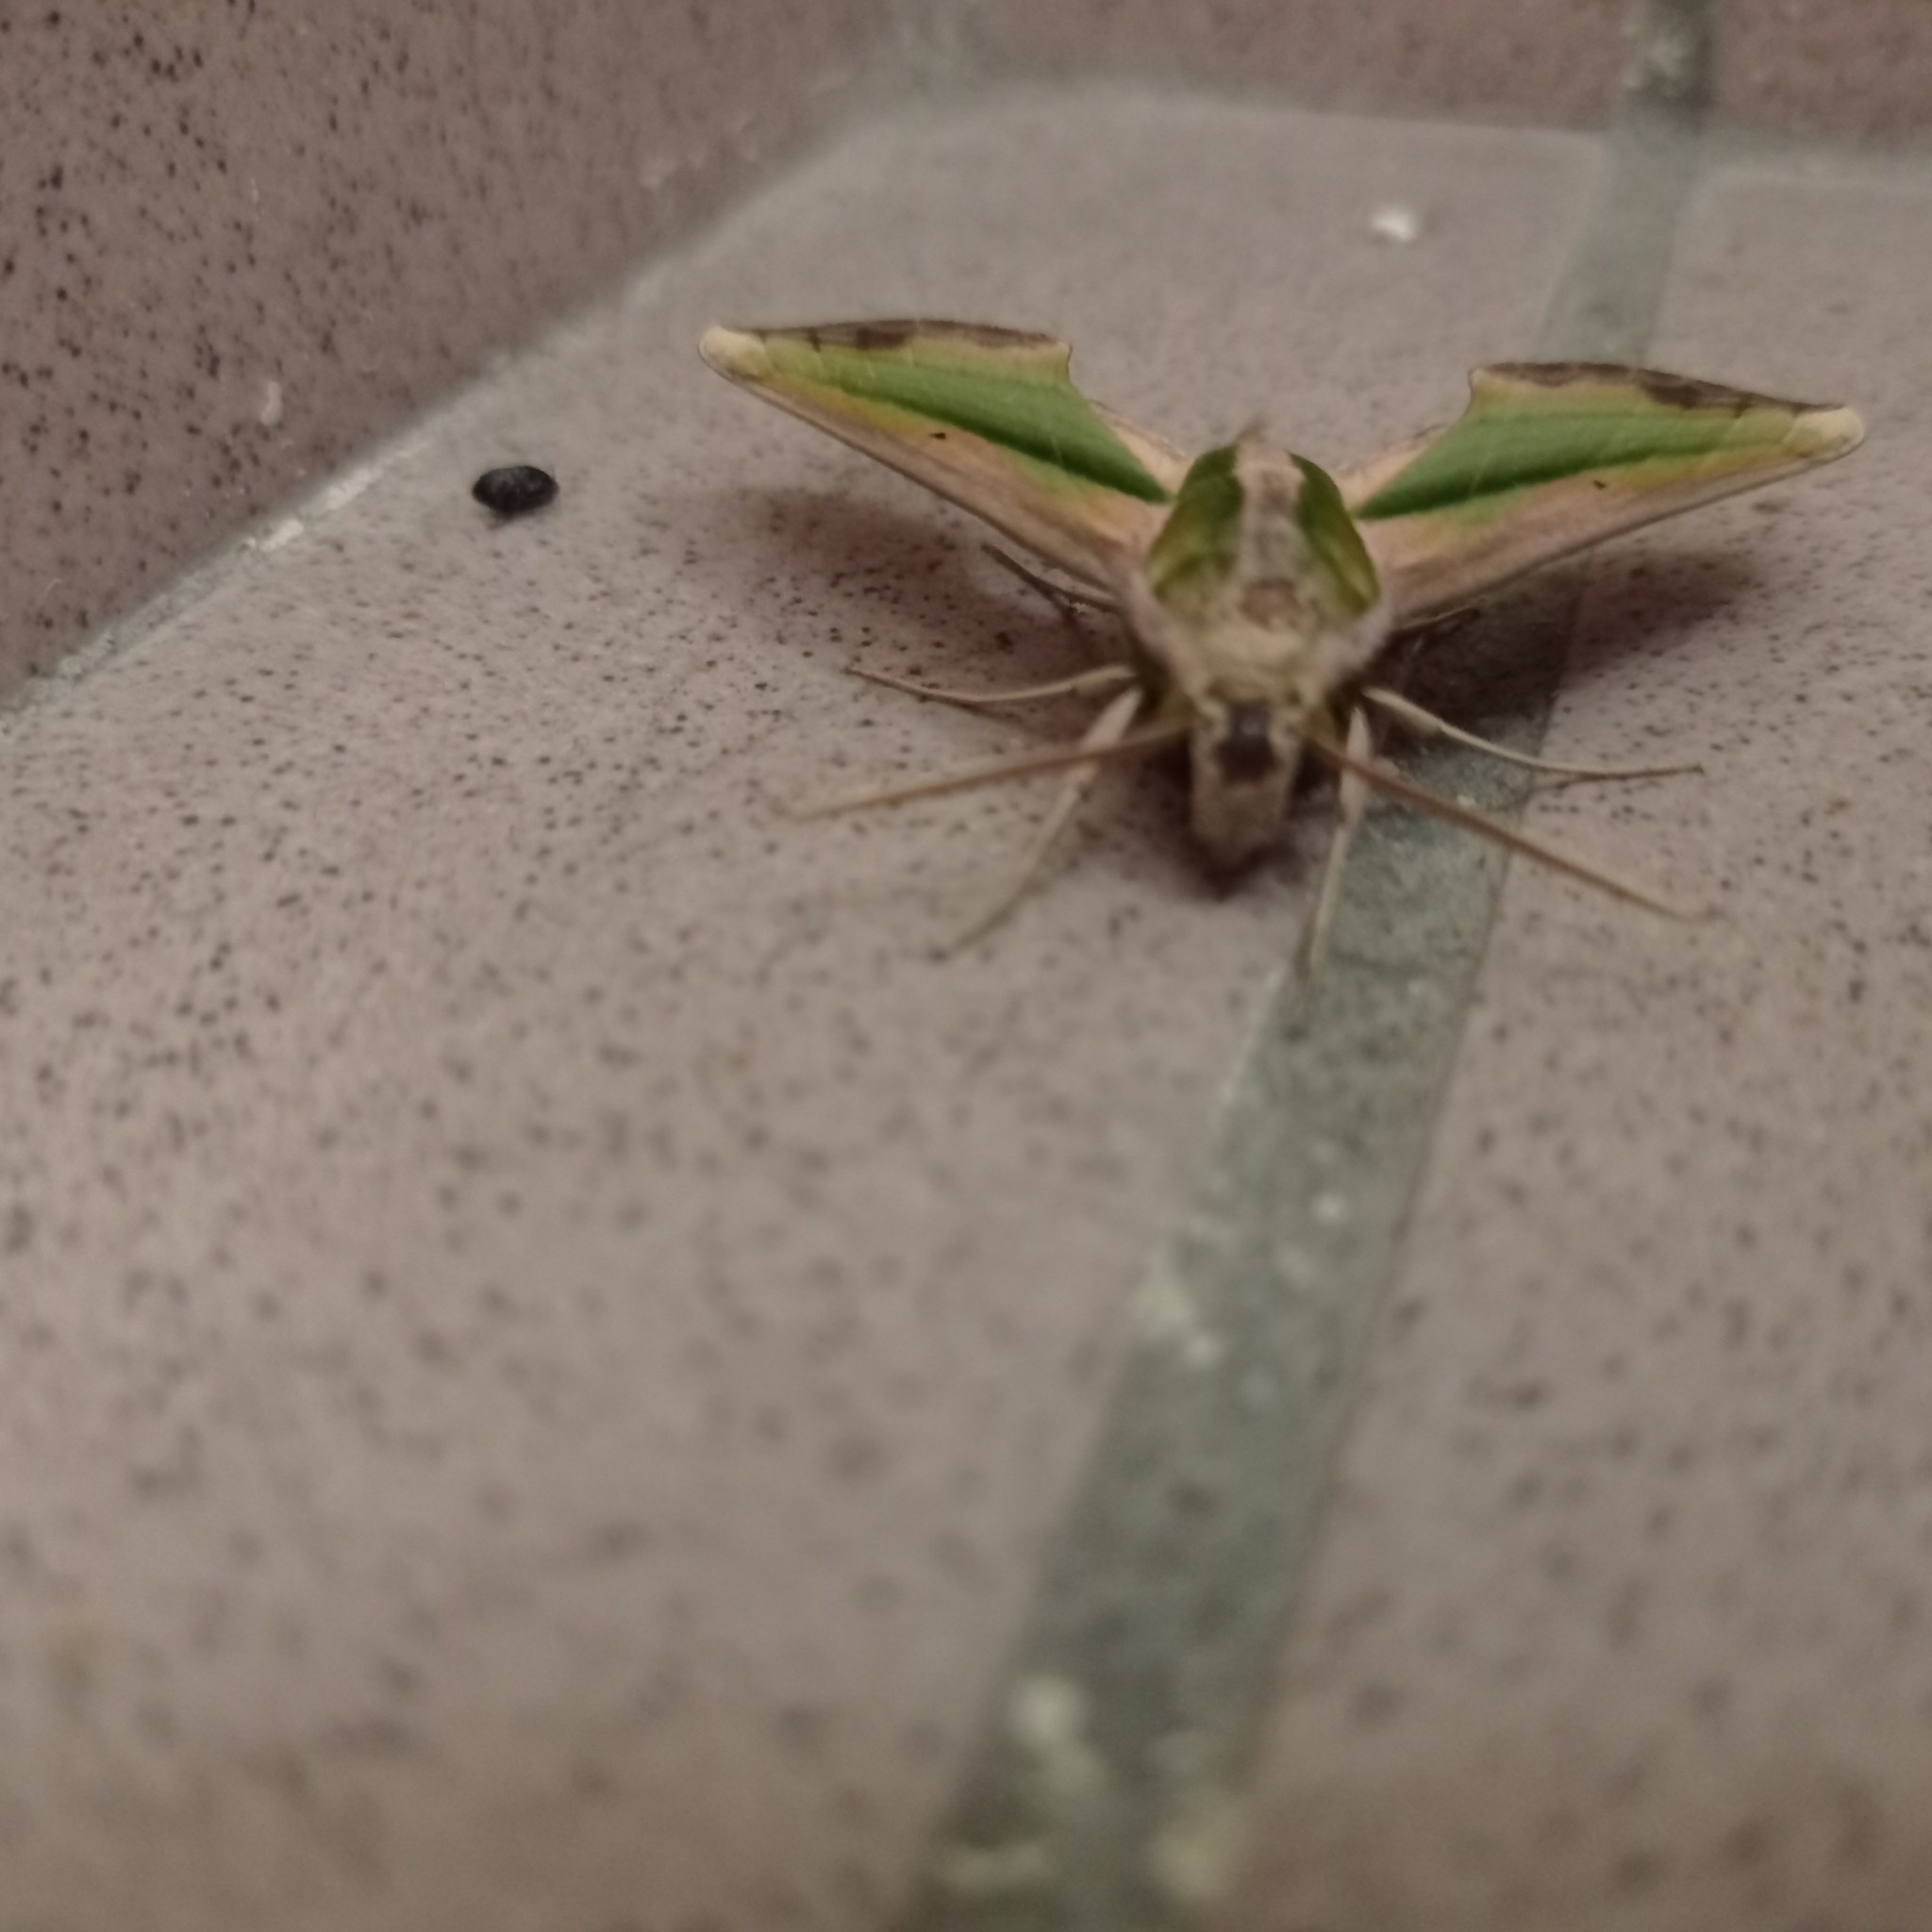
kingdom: Animalia
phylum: Arthropoda
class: Insecta
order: Lepidoptera
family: Sphingidae
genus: Pergesa
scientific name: Pergesa acteus
